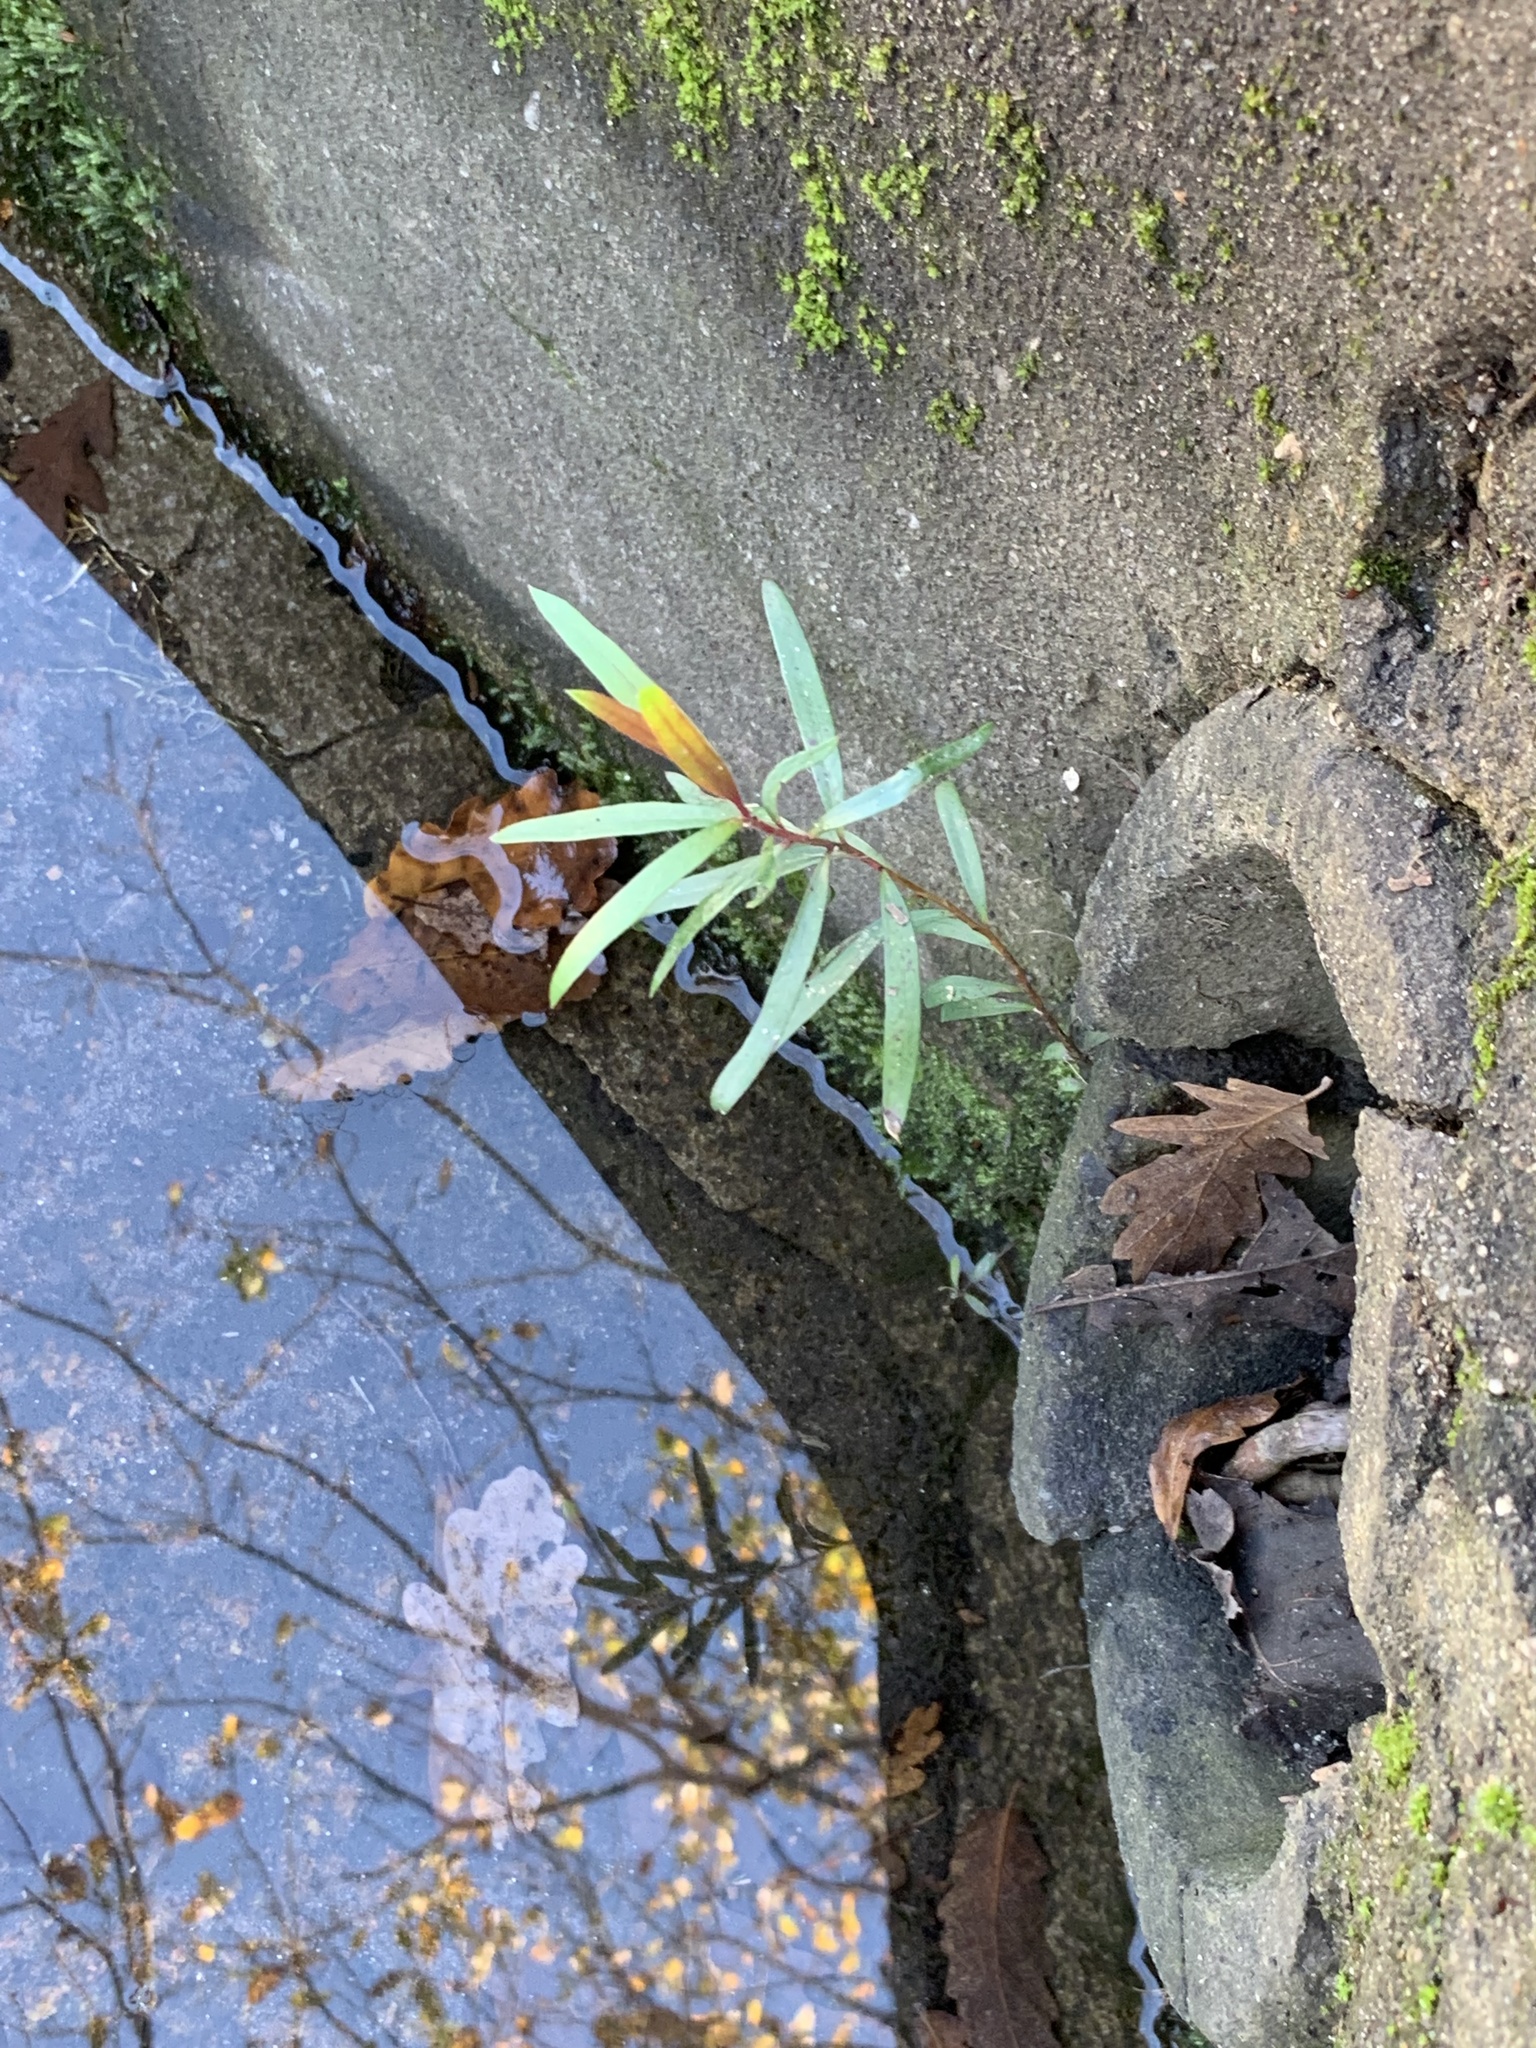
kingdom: Plantae
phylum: Tracheophyta
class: Magnoliopsida
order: Myrtales
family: Myrtaceae
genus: Callistemon
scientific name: Callistemon viminalis
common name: Drooping bottlebrush
